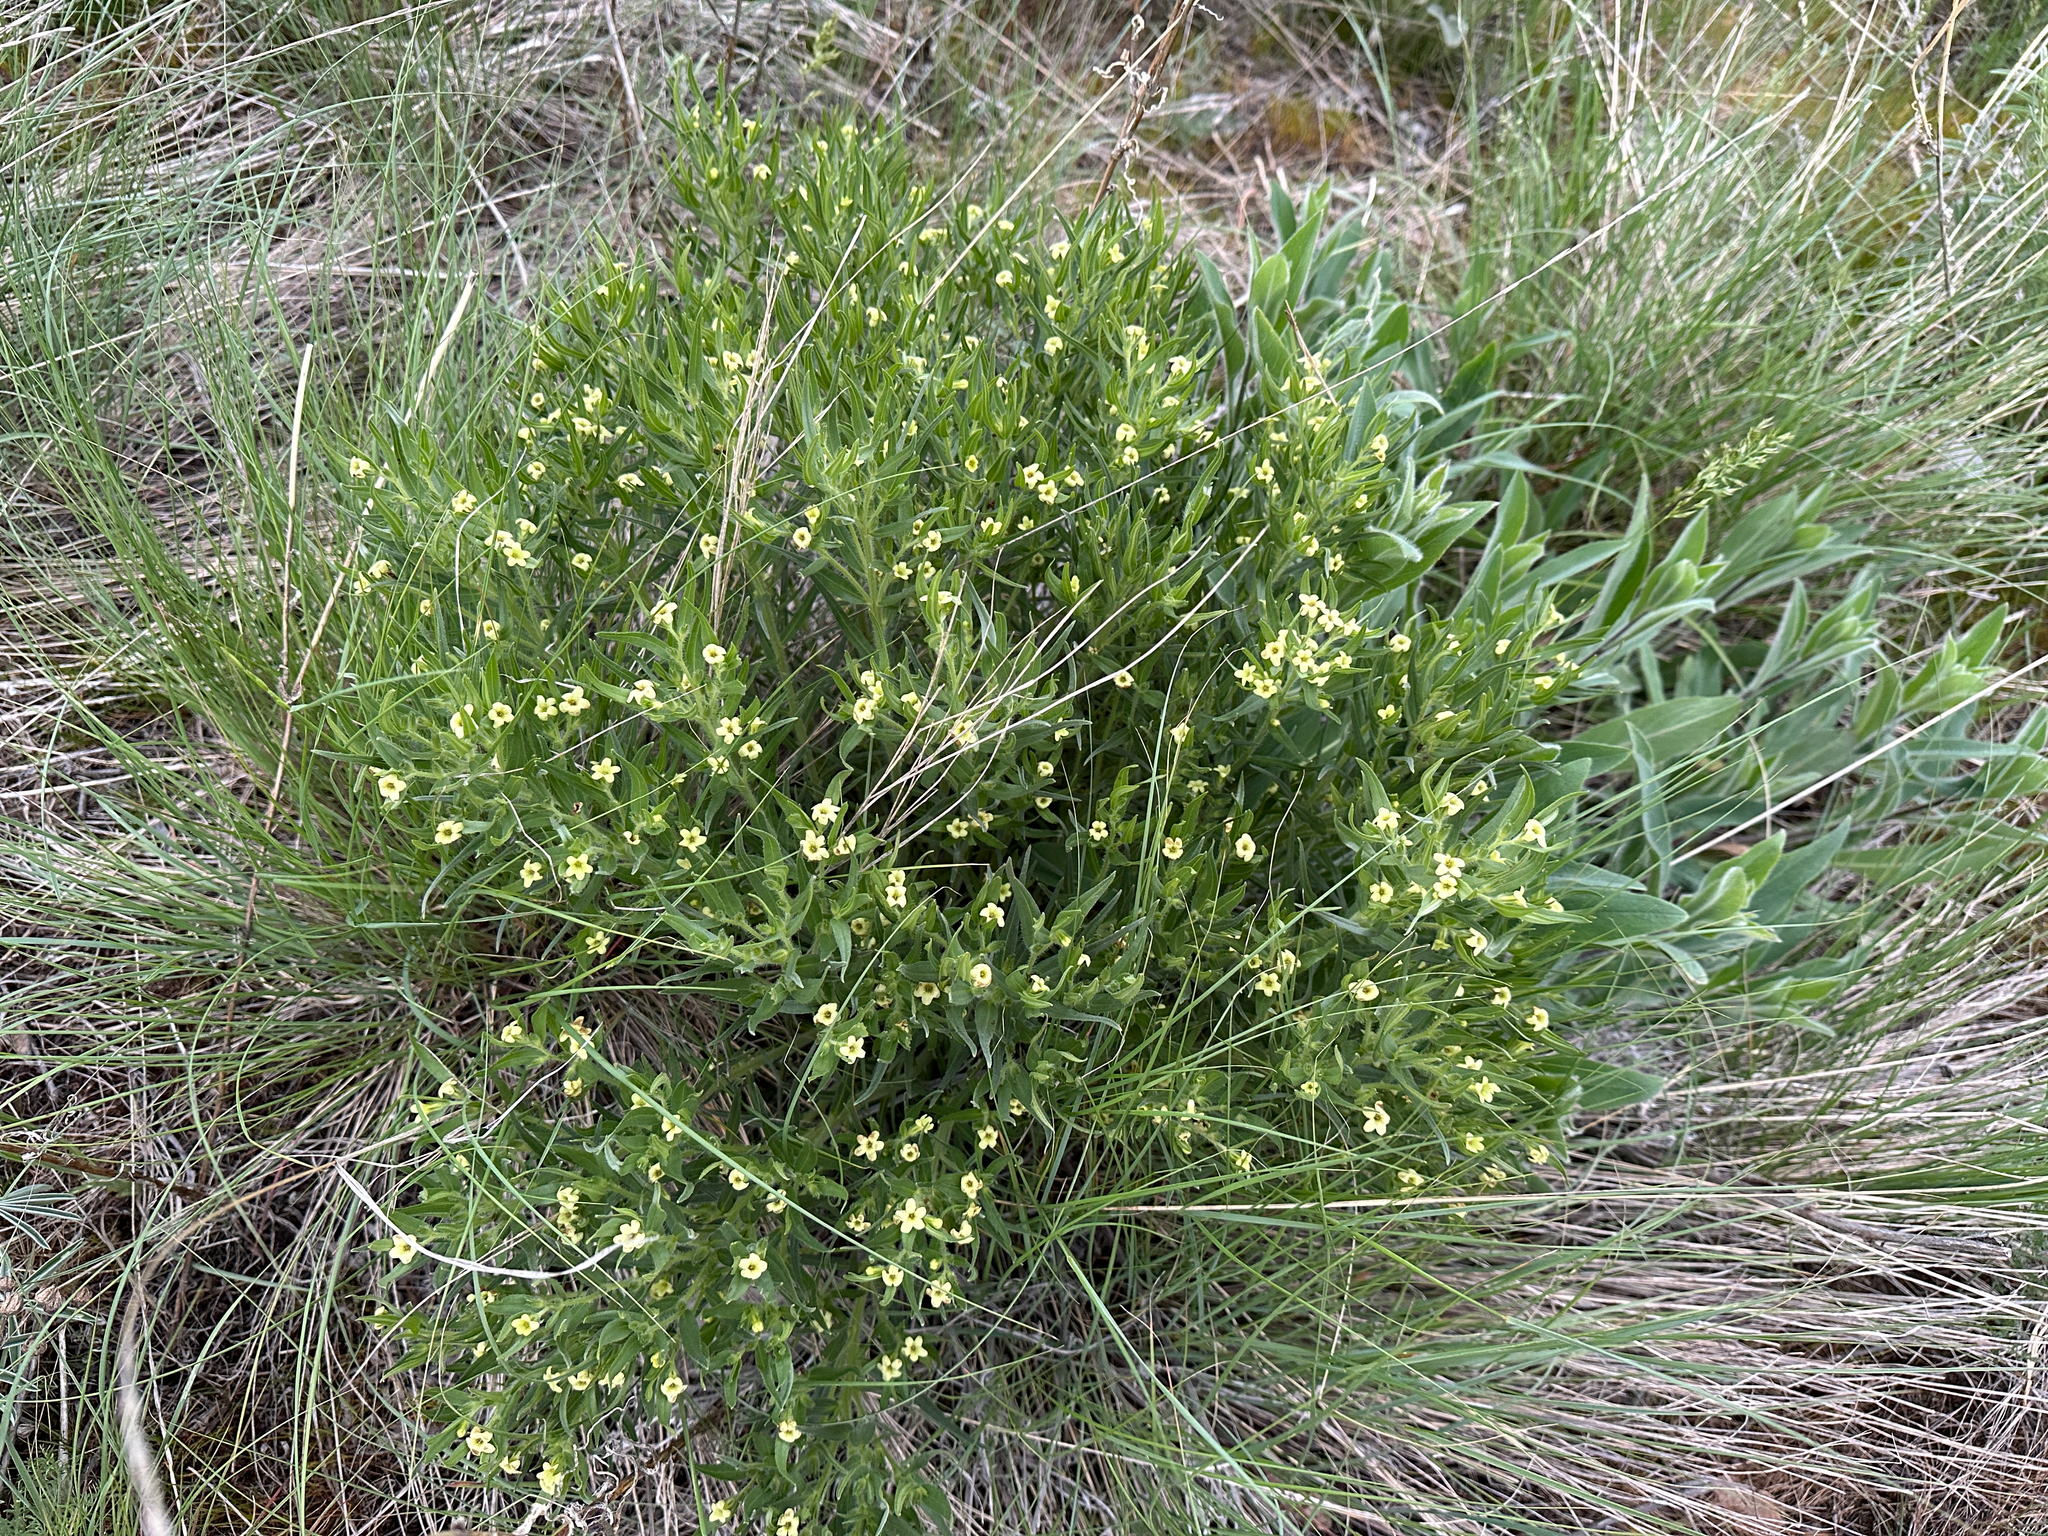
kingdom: Plantae
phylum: Tracheophyta
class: Magnoliopsida
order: Boraginales
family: Boraginaceae
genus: Lithospermum
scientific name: Lithospermum ruderale
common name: Western gromwell
